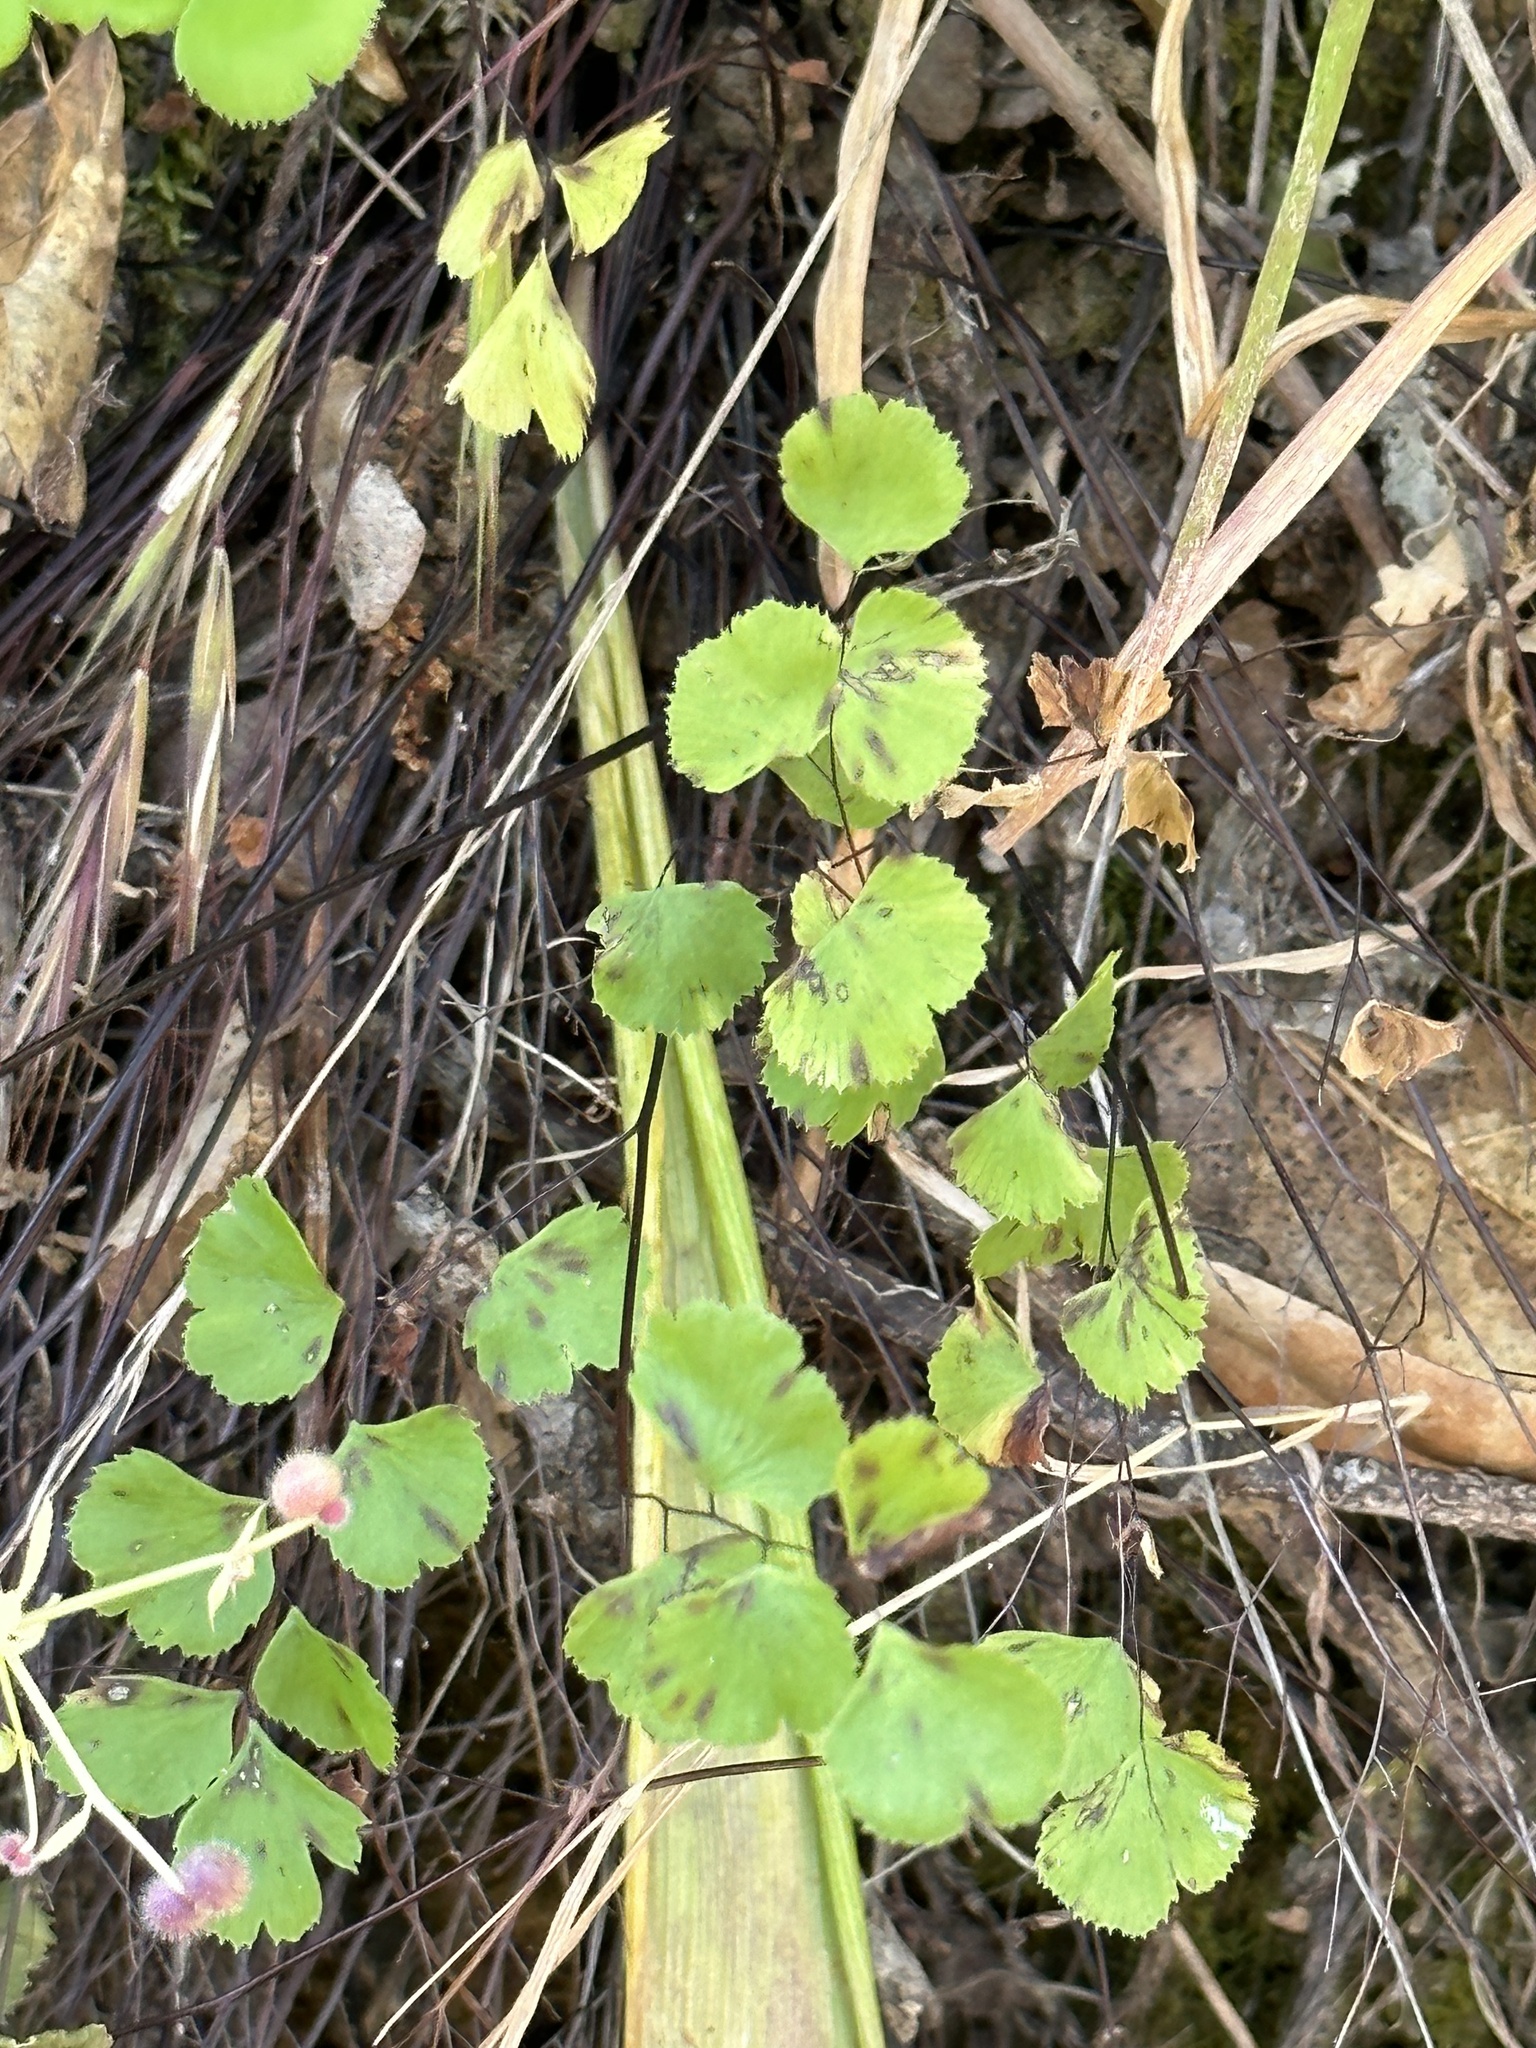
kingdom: Plantae
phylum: Tracheophyta
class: Polypodiopsida
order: Polypodiales
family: Pteridaceae
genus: Adiantum
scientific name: Adiantum jordanii
